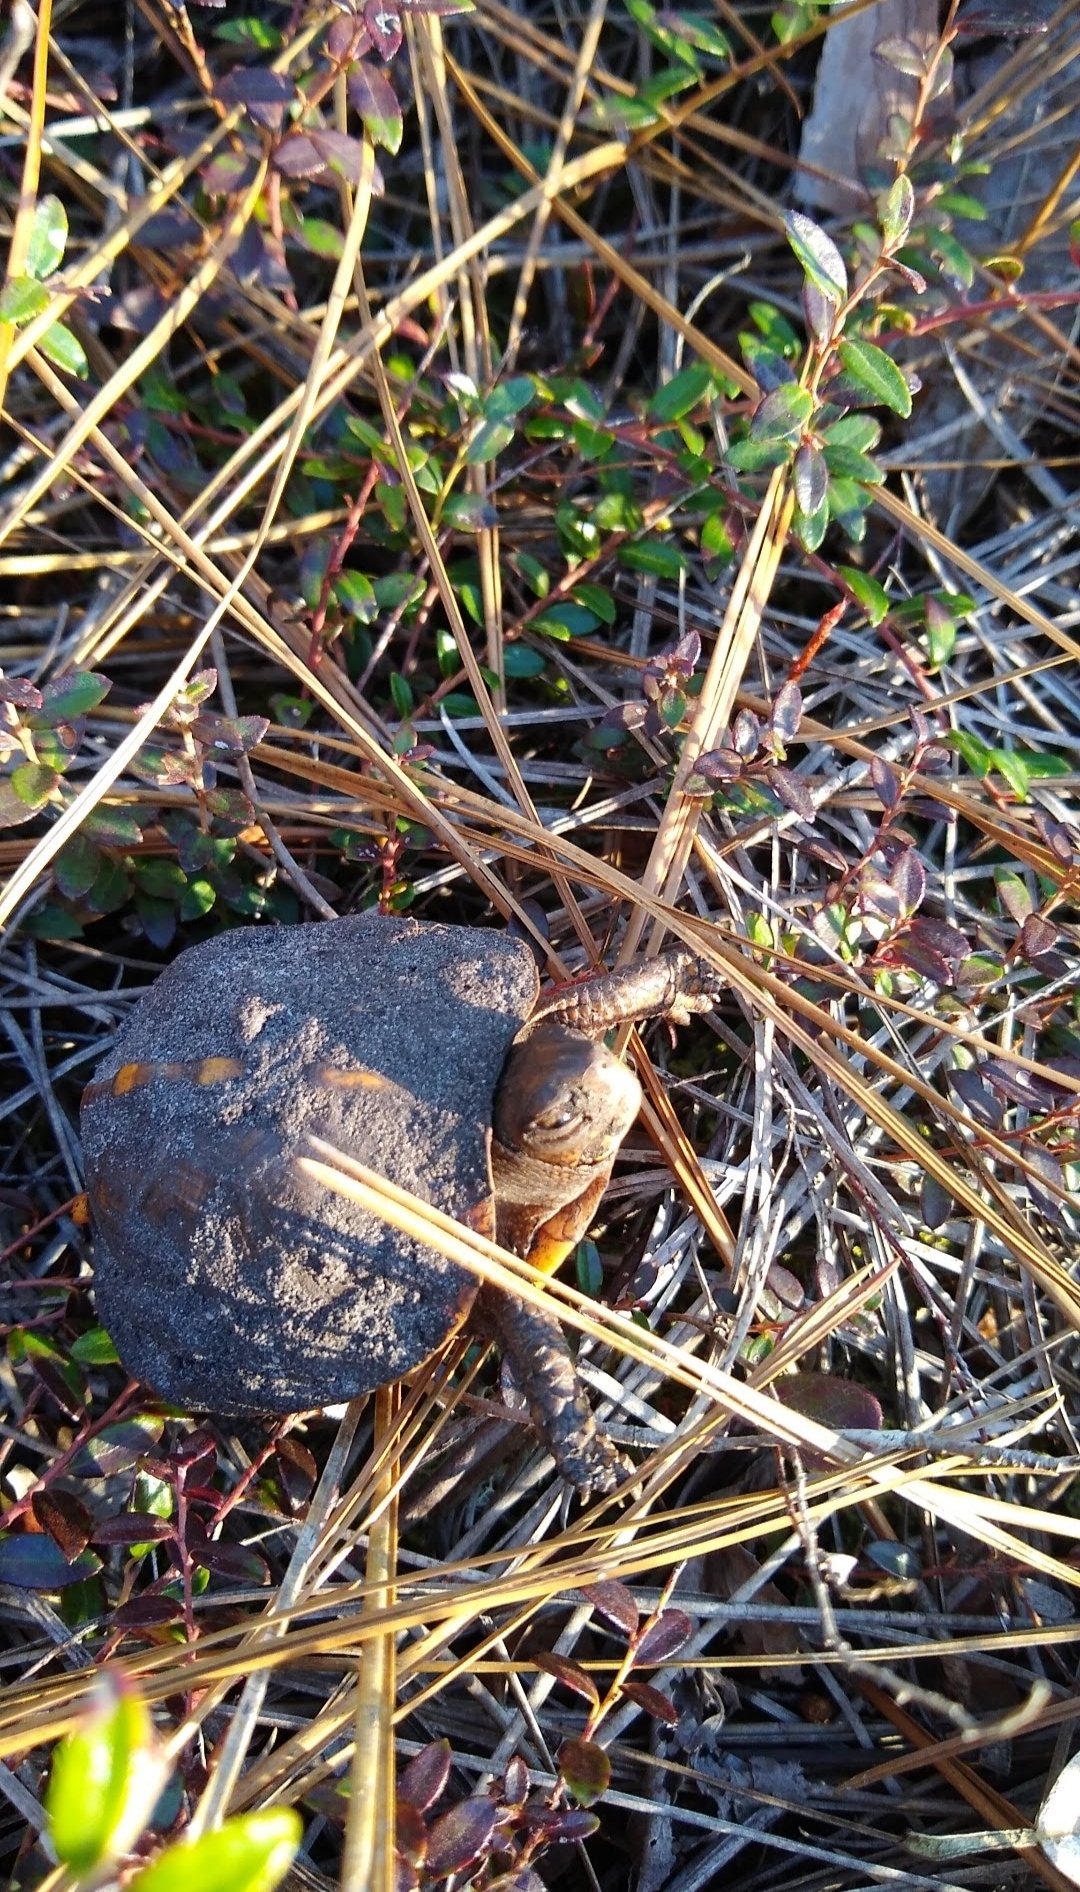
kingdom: Animalia
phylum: Chordata
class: Testudines
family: Emydidae
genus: Terrapene
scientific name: Terrapene carolina
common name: Common box turtle
